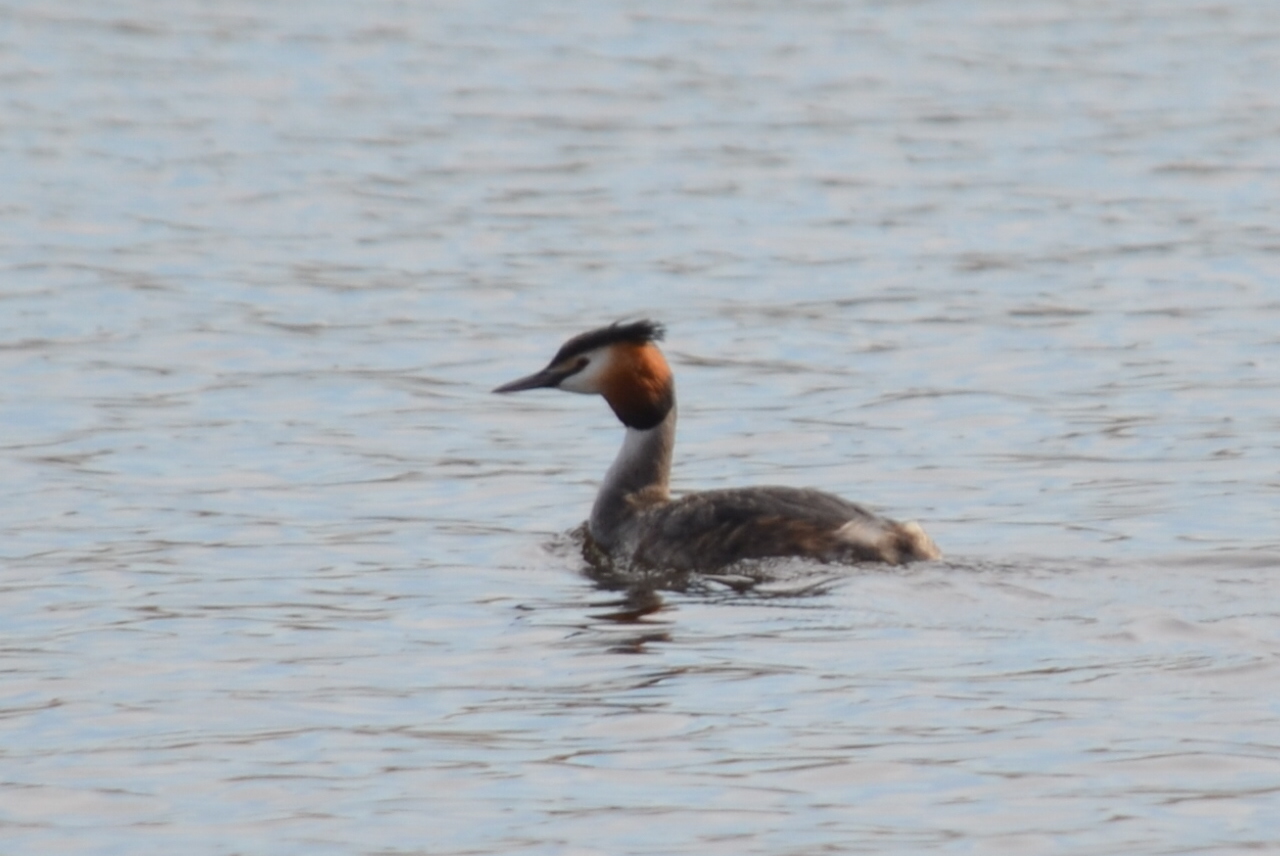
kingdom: Animalia
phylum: Chordata
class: Aves
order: Podicipediformes
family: Podicipedidae
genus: Podiceps
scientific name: Podiceps cristatus
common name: Great crested grebe
